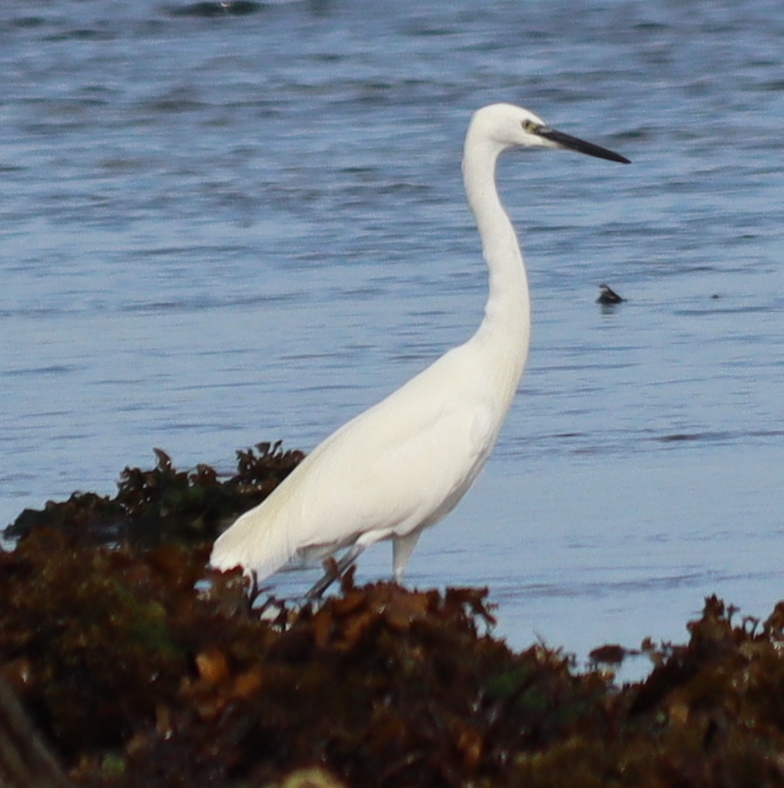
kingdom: Animalia
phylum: Chordata
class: Aves
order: Pelecaniformes
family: Ardeidae
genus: Egretta
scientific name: Egretta garzetta
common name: Little egret
